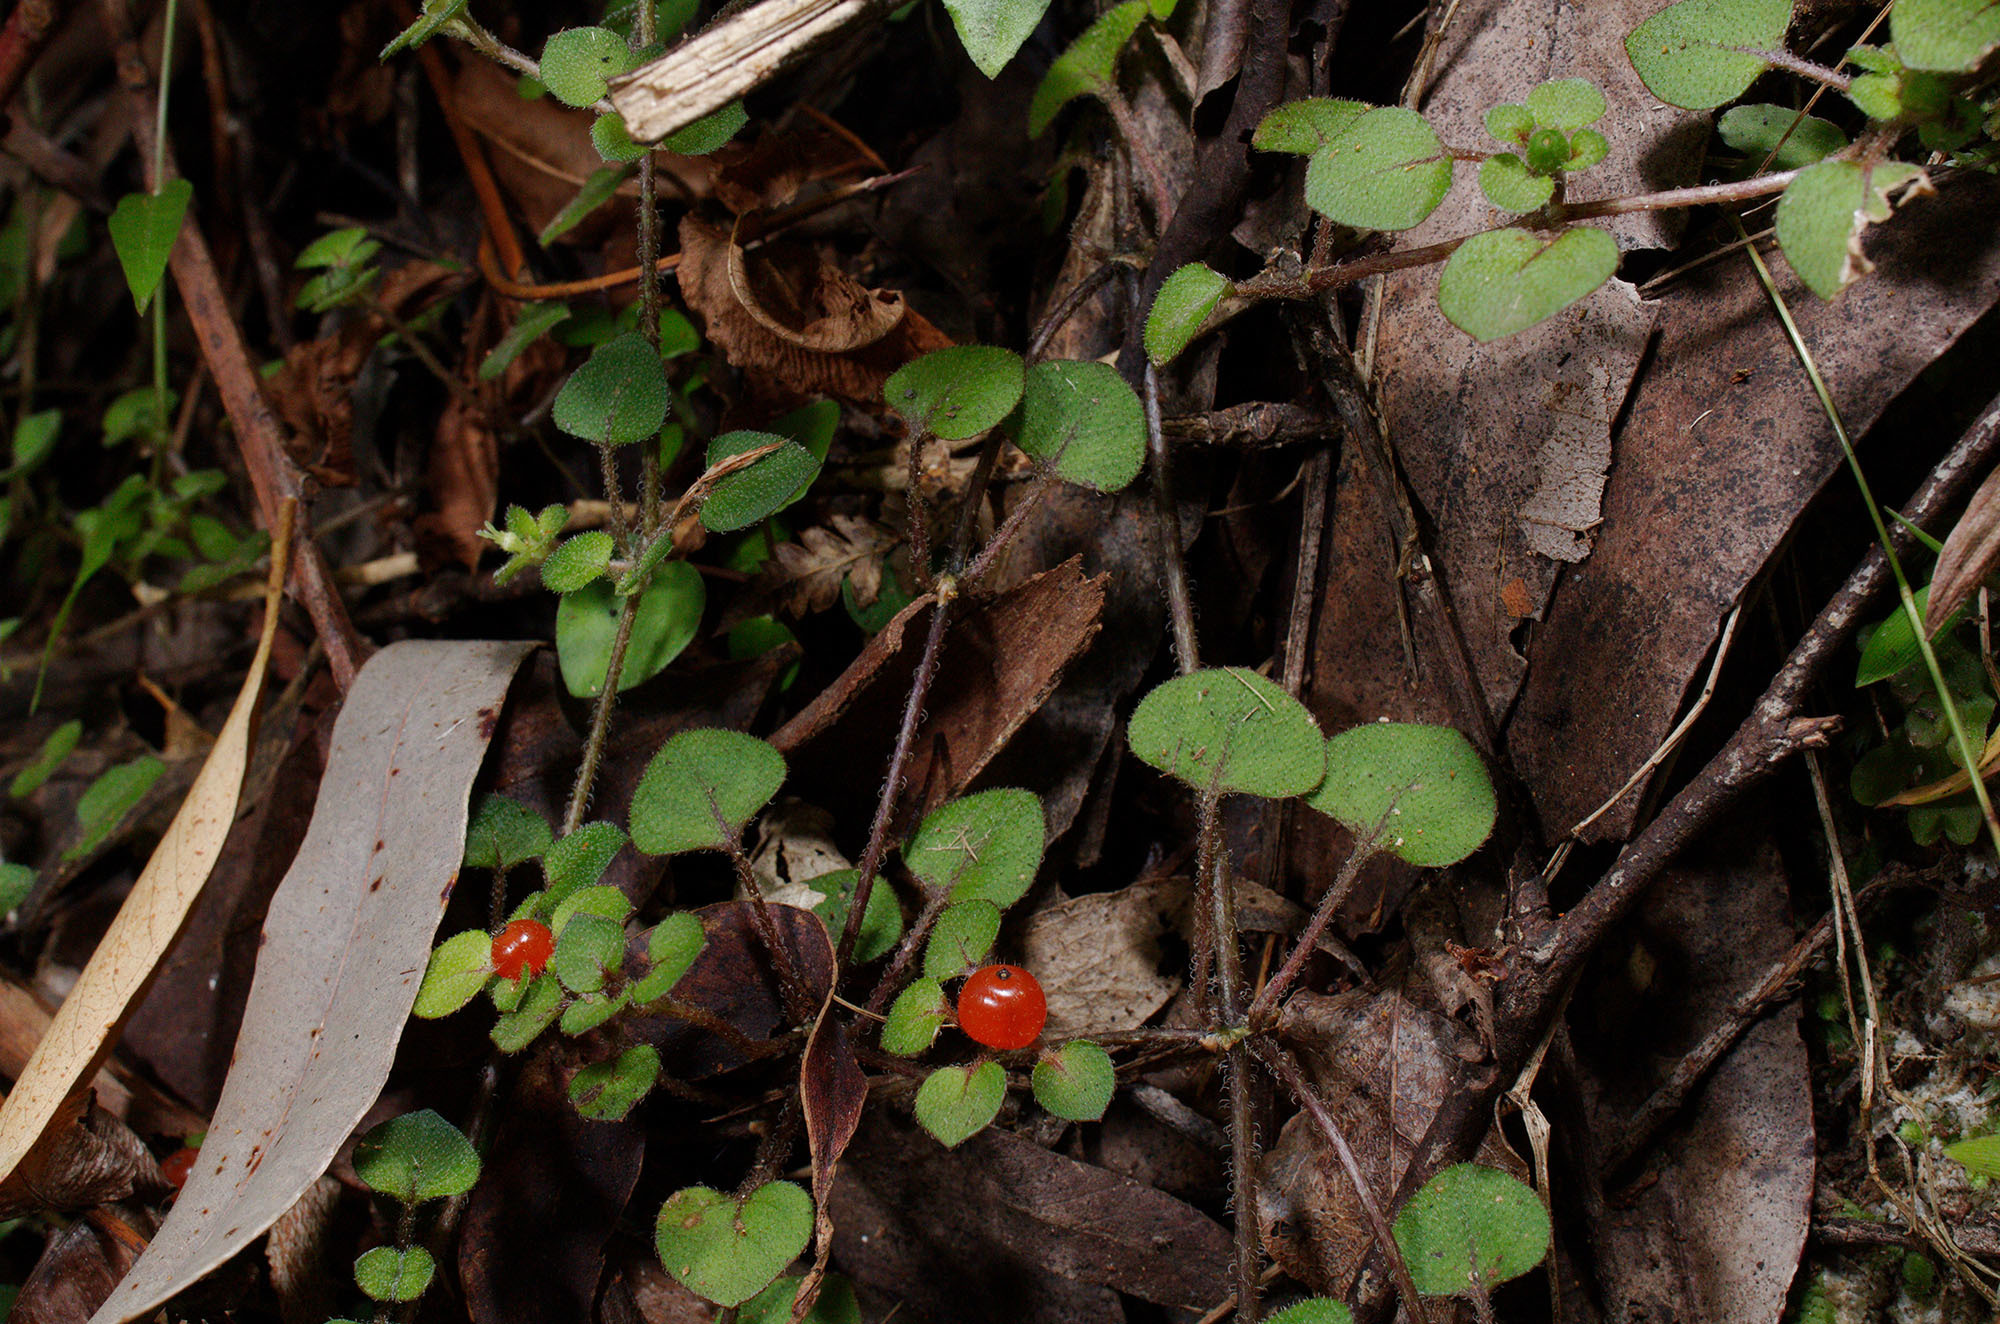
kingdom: Plantae
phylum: Tracheophyta
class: Magnoliopsida
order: Gentianales
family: Rubiaceae
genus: Nertera
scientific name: Nertera dichondrifolia
